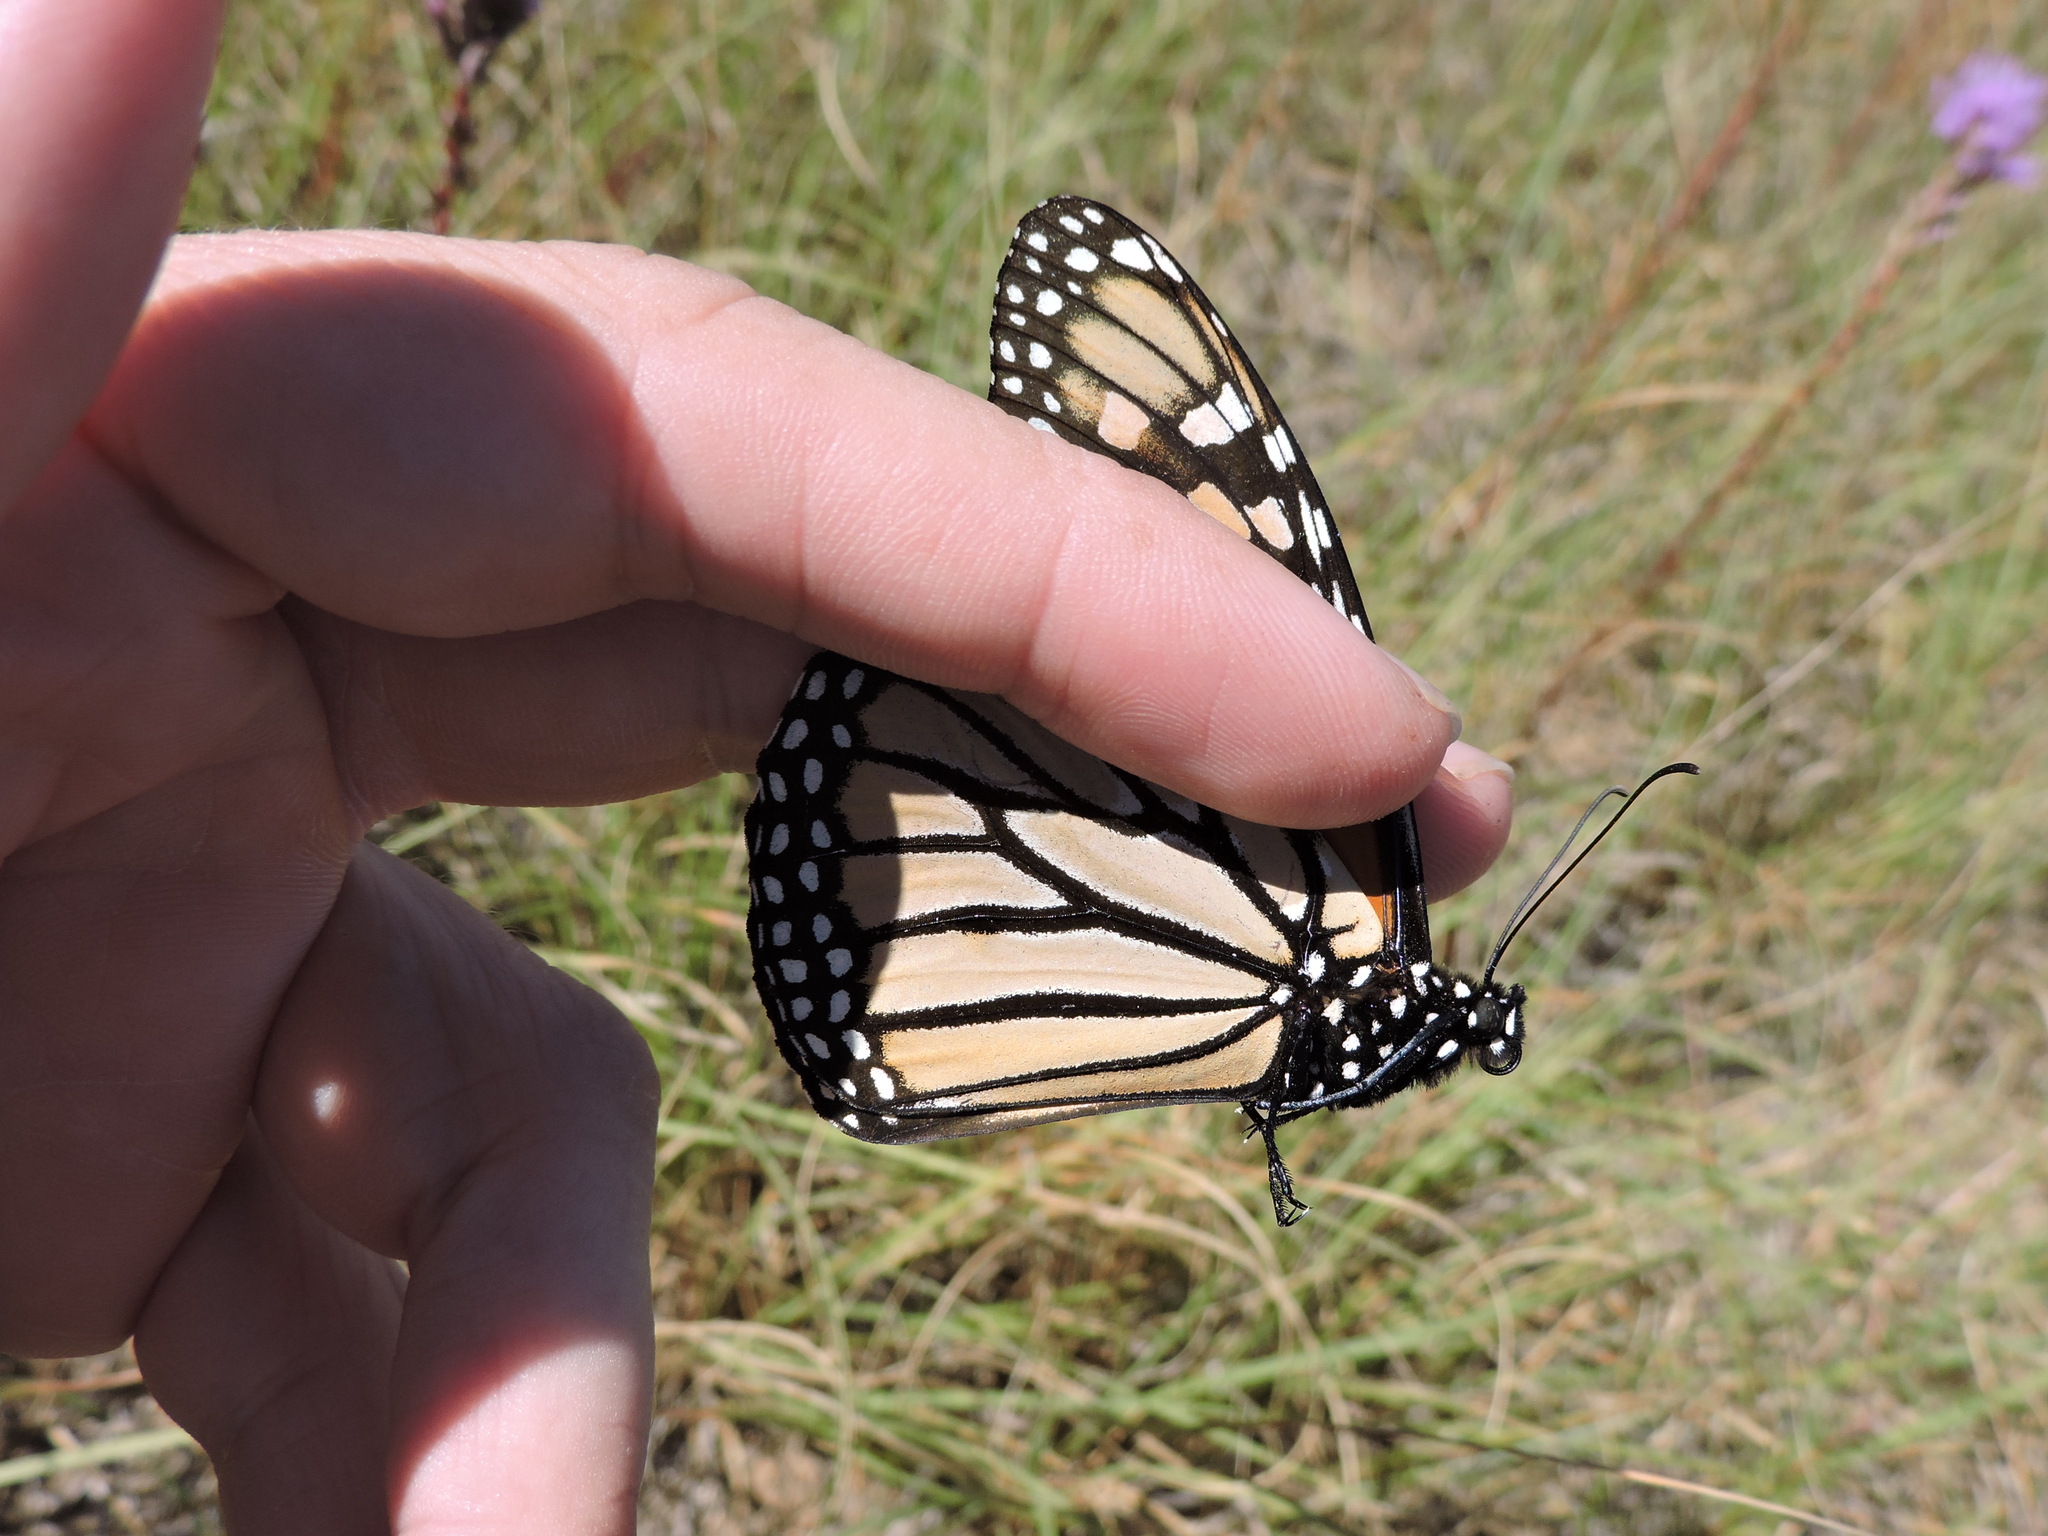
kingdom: Animalia
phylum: Arthropoda
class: Insecta
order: Lepidoptera
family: Nymphalidae
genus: Danaus
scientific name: Danaus plexippus
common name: Monarch
